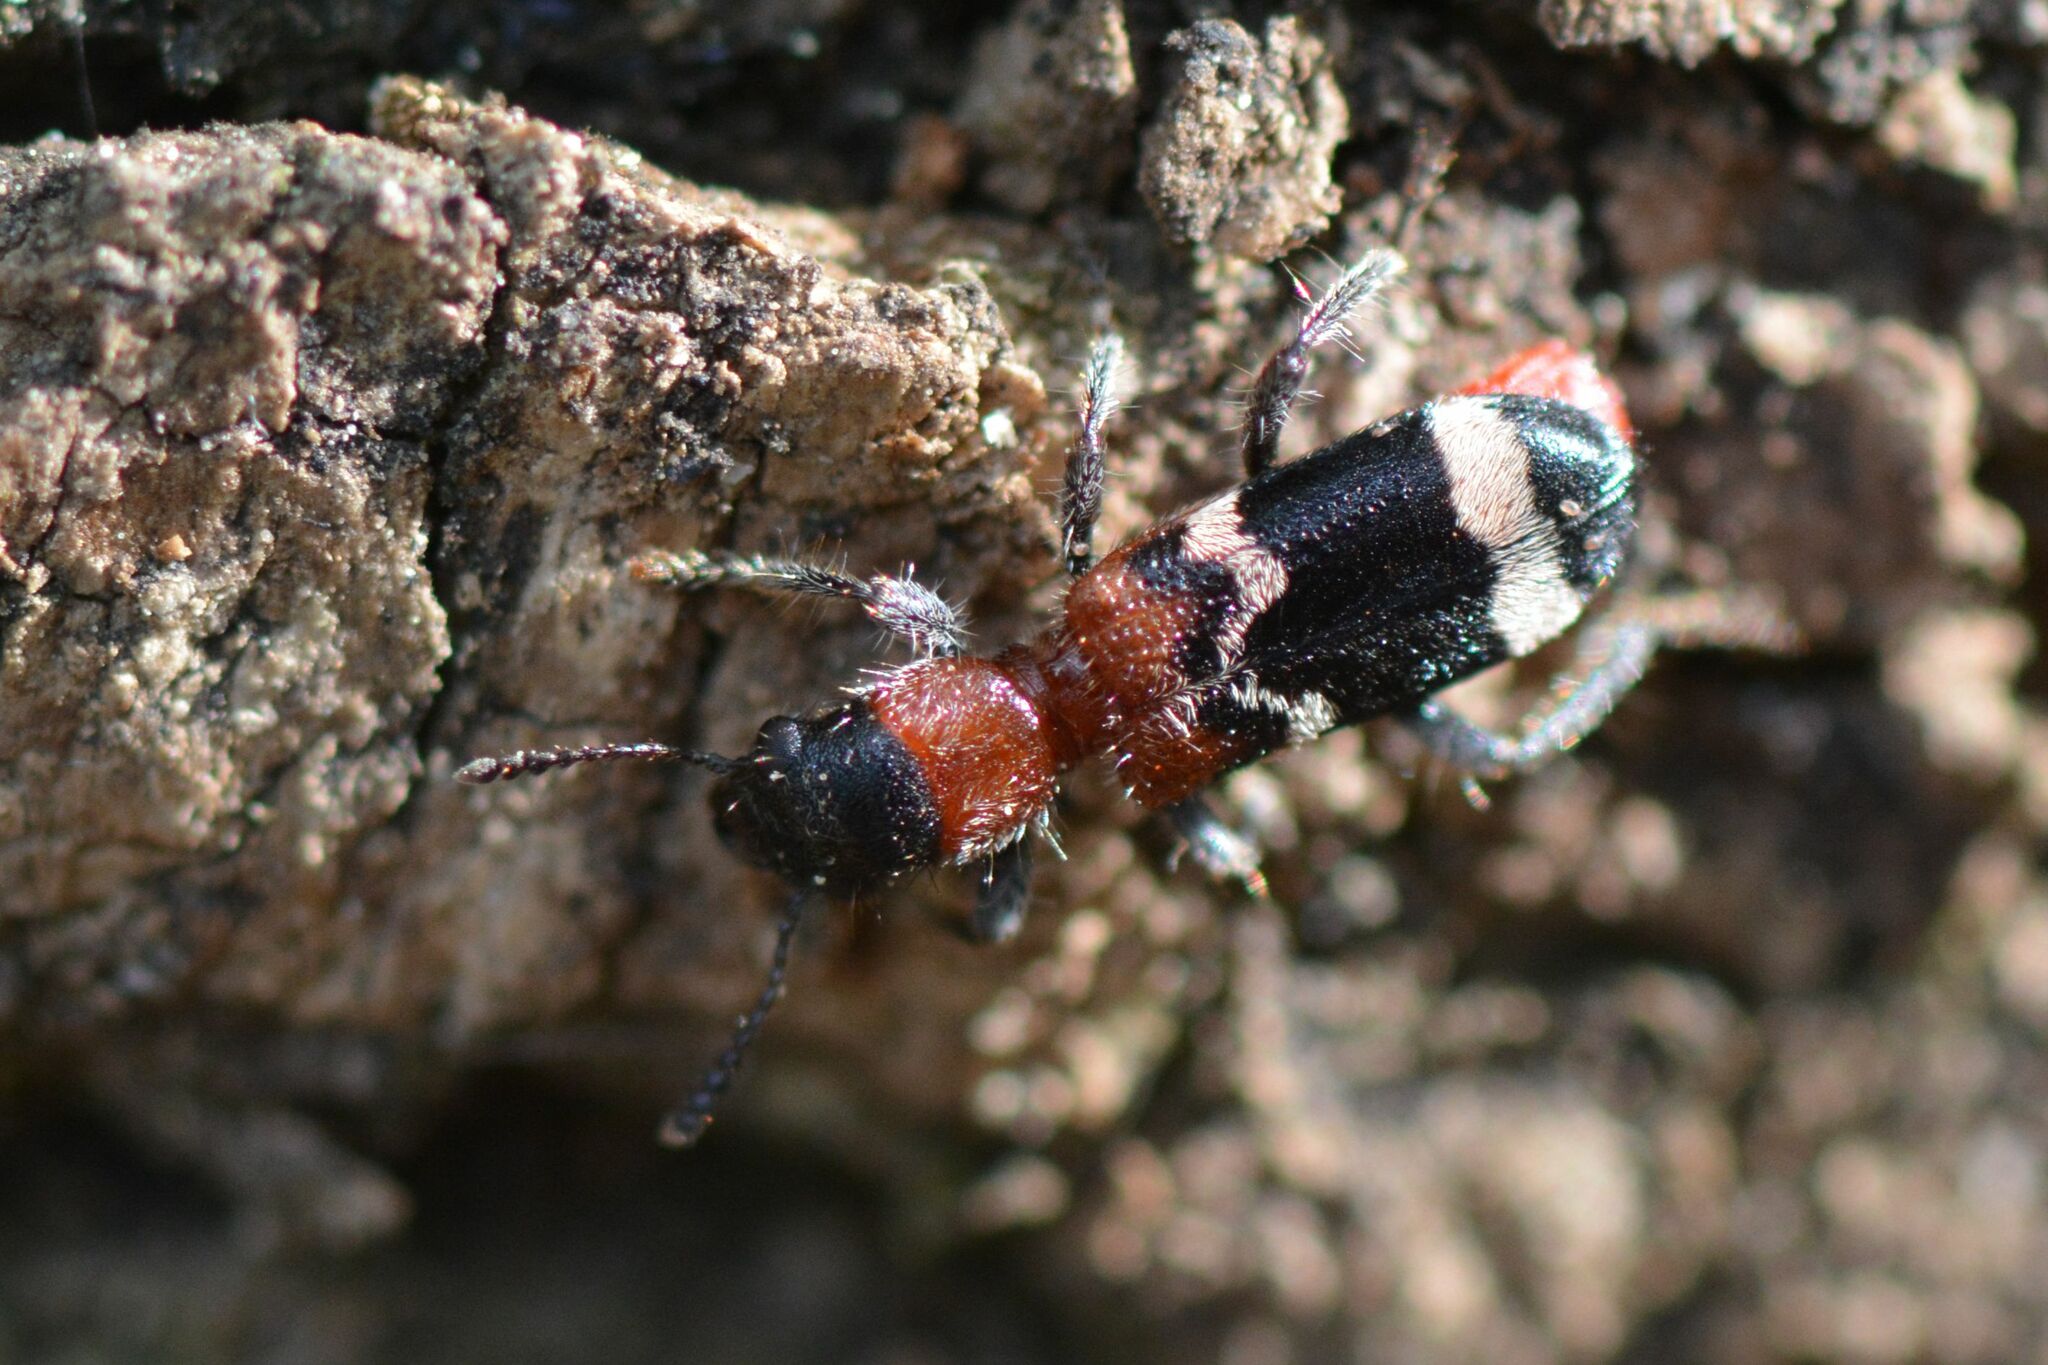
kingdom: Animalia
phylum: Arthropoda
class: Insecta
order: Coleoptera
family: Cleridae
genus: Thanasimus
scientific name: Thanasimus formicarius
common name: Ant beetle
